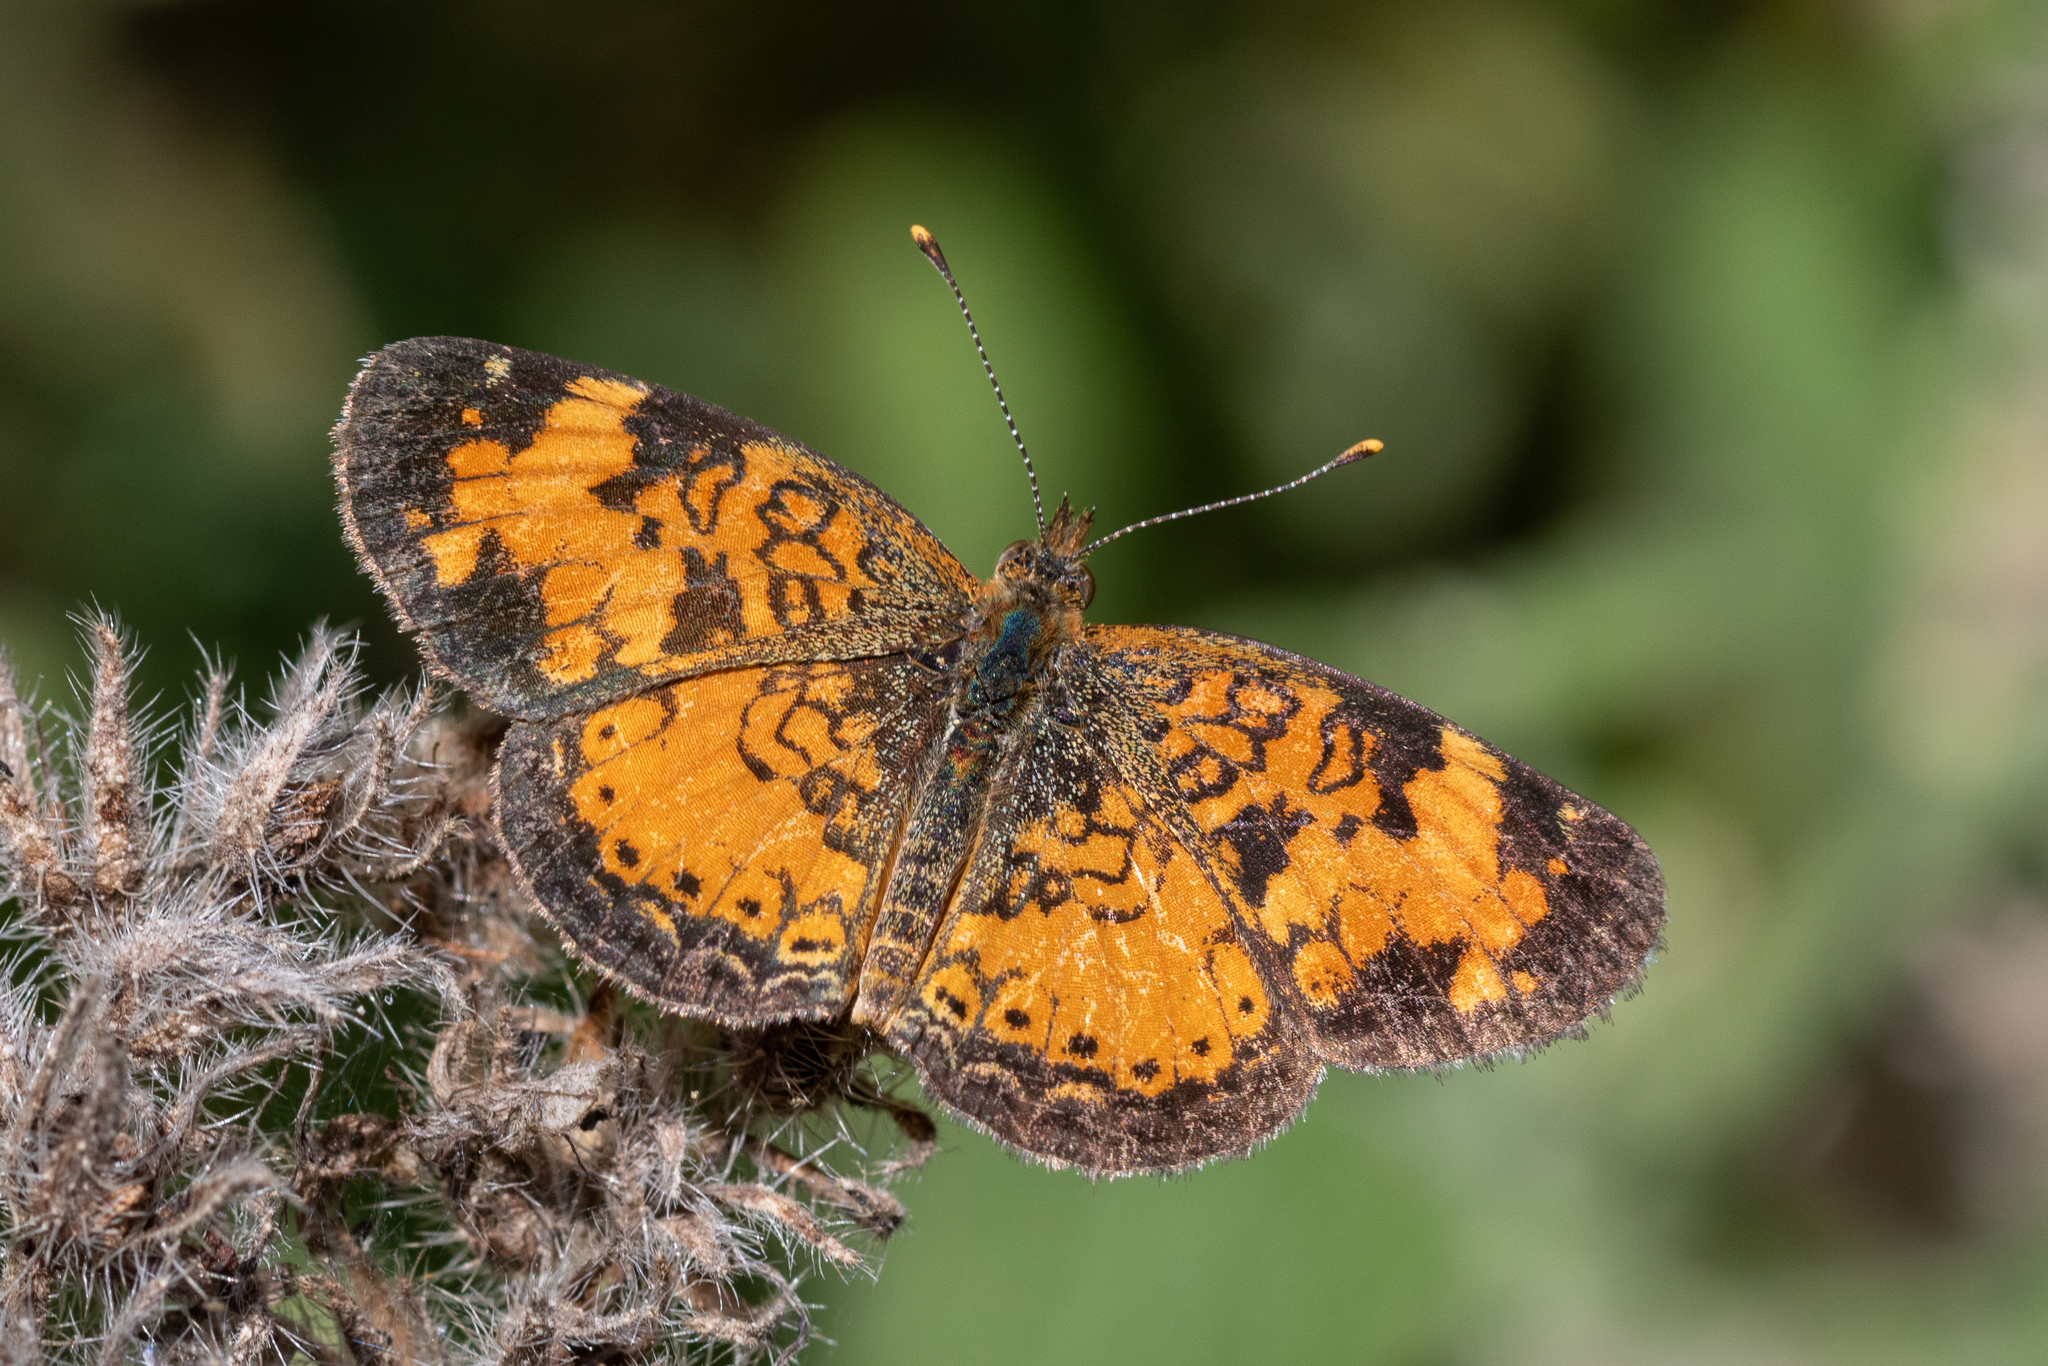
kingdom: Animalia
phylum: Arthropoda
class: Insecta
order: Lepidoptera
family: Nymphalidae
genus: Phyciodes
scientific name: Phyciodes tharos
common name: Pearl crescent
